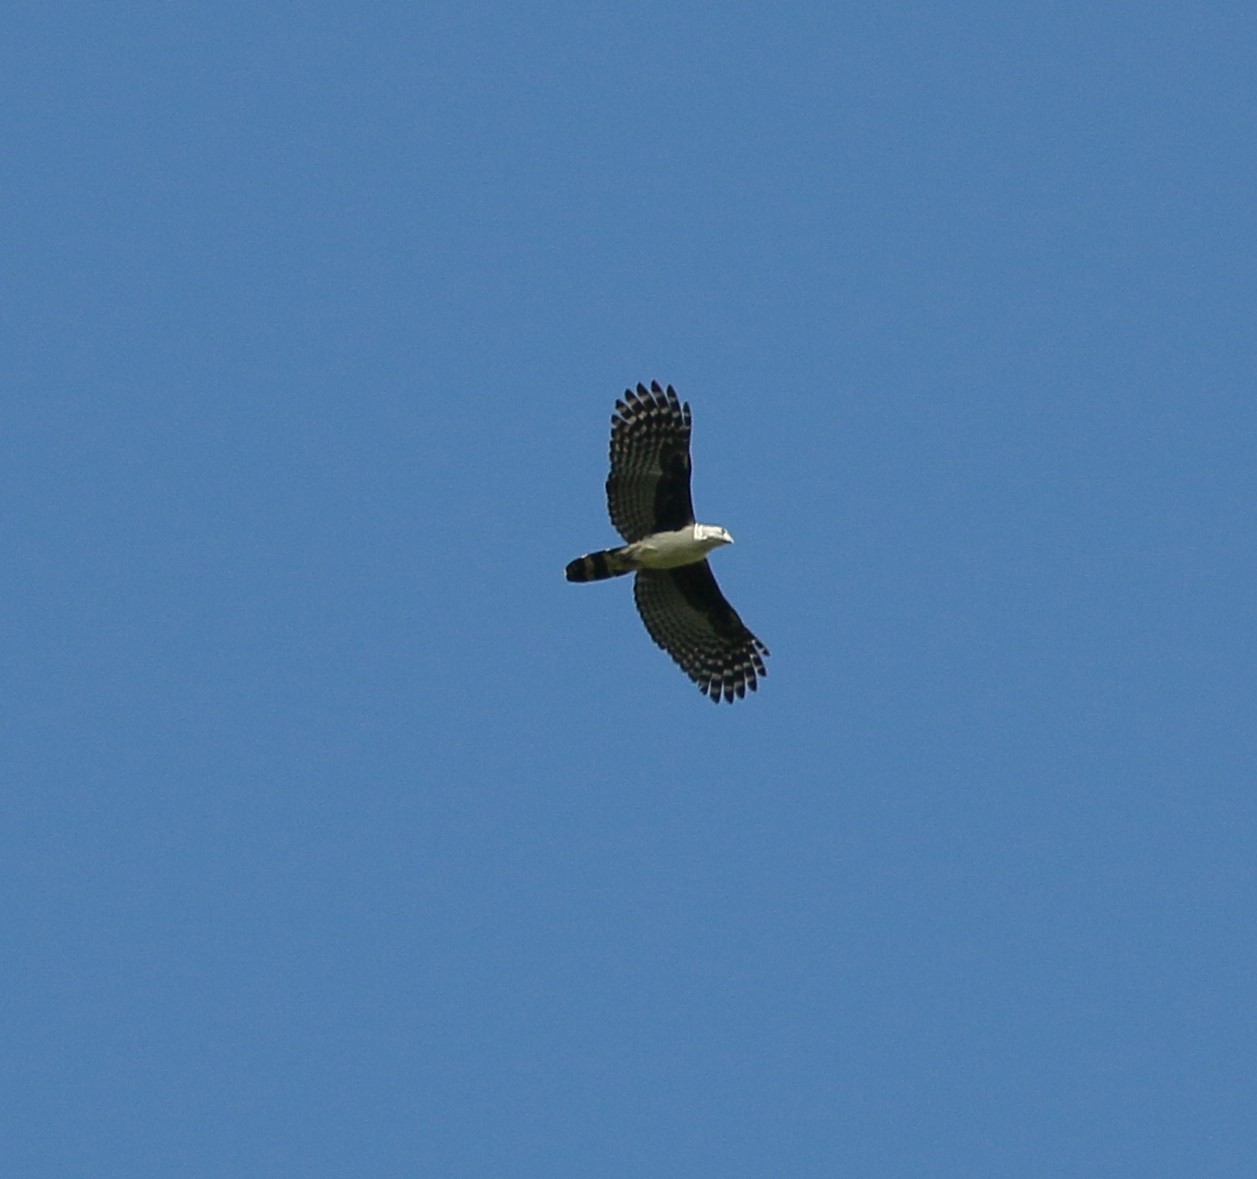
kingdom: Animalia
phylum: Chordata
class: Aves
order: Accipitriformes
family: Accipitridae
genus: Leptodon
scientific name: Leptodon cayanensis
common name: Gray-headed kite
